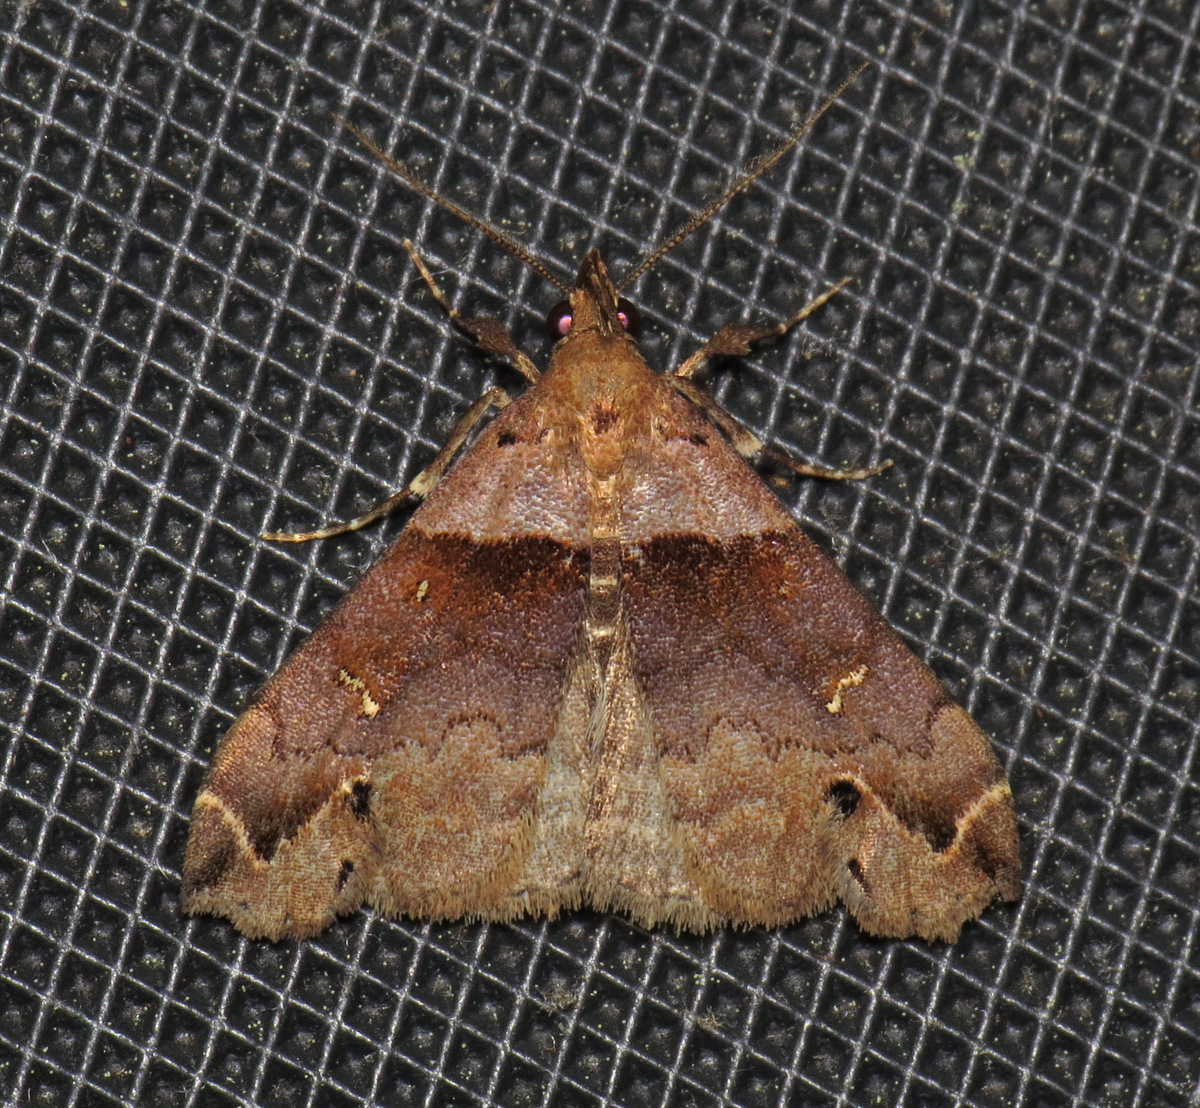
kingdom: Animalia
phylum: Arthropoda
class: Insecta
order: Lepidoptera
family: Erebidae
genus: Lascoria
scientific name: Lascoria ambigualis
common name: Ambiguous moth
